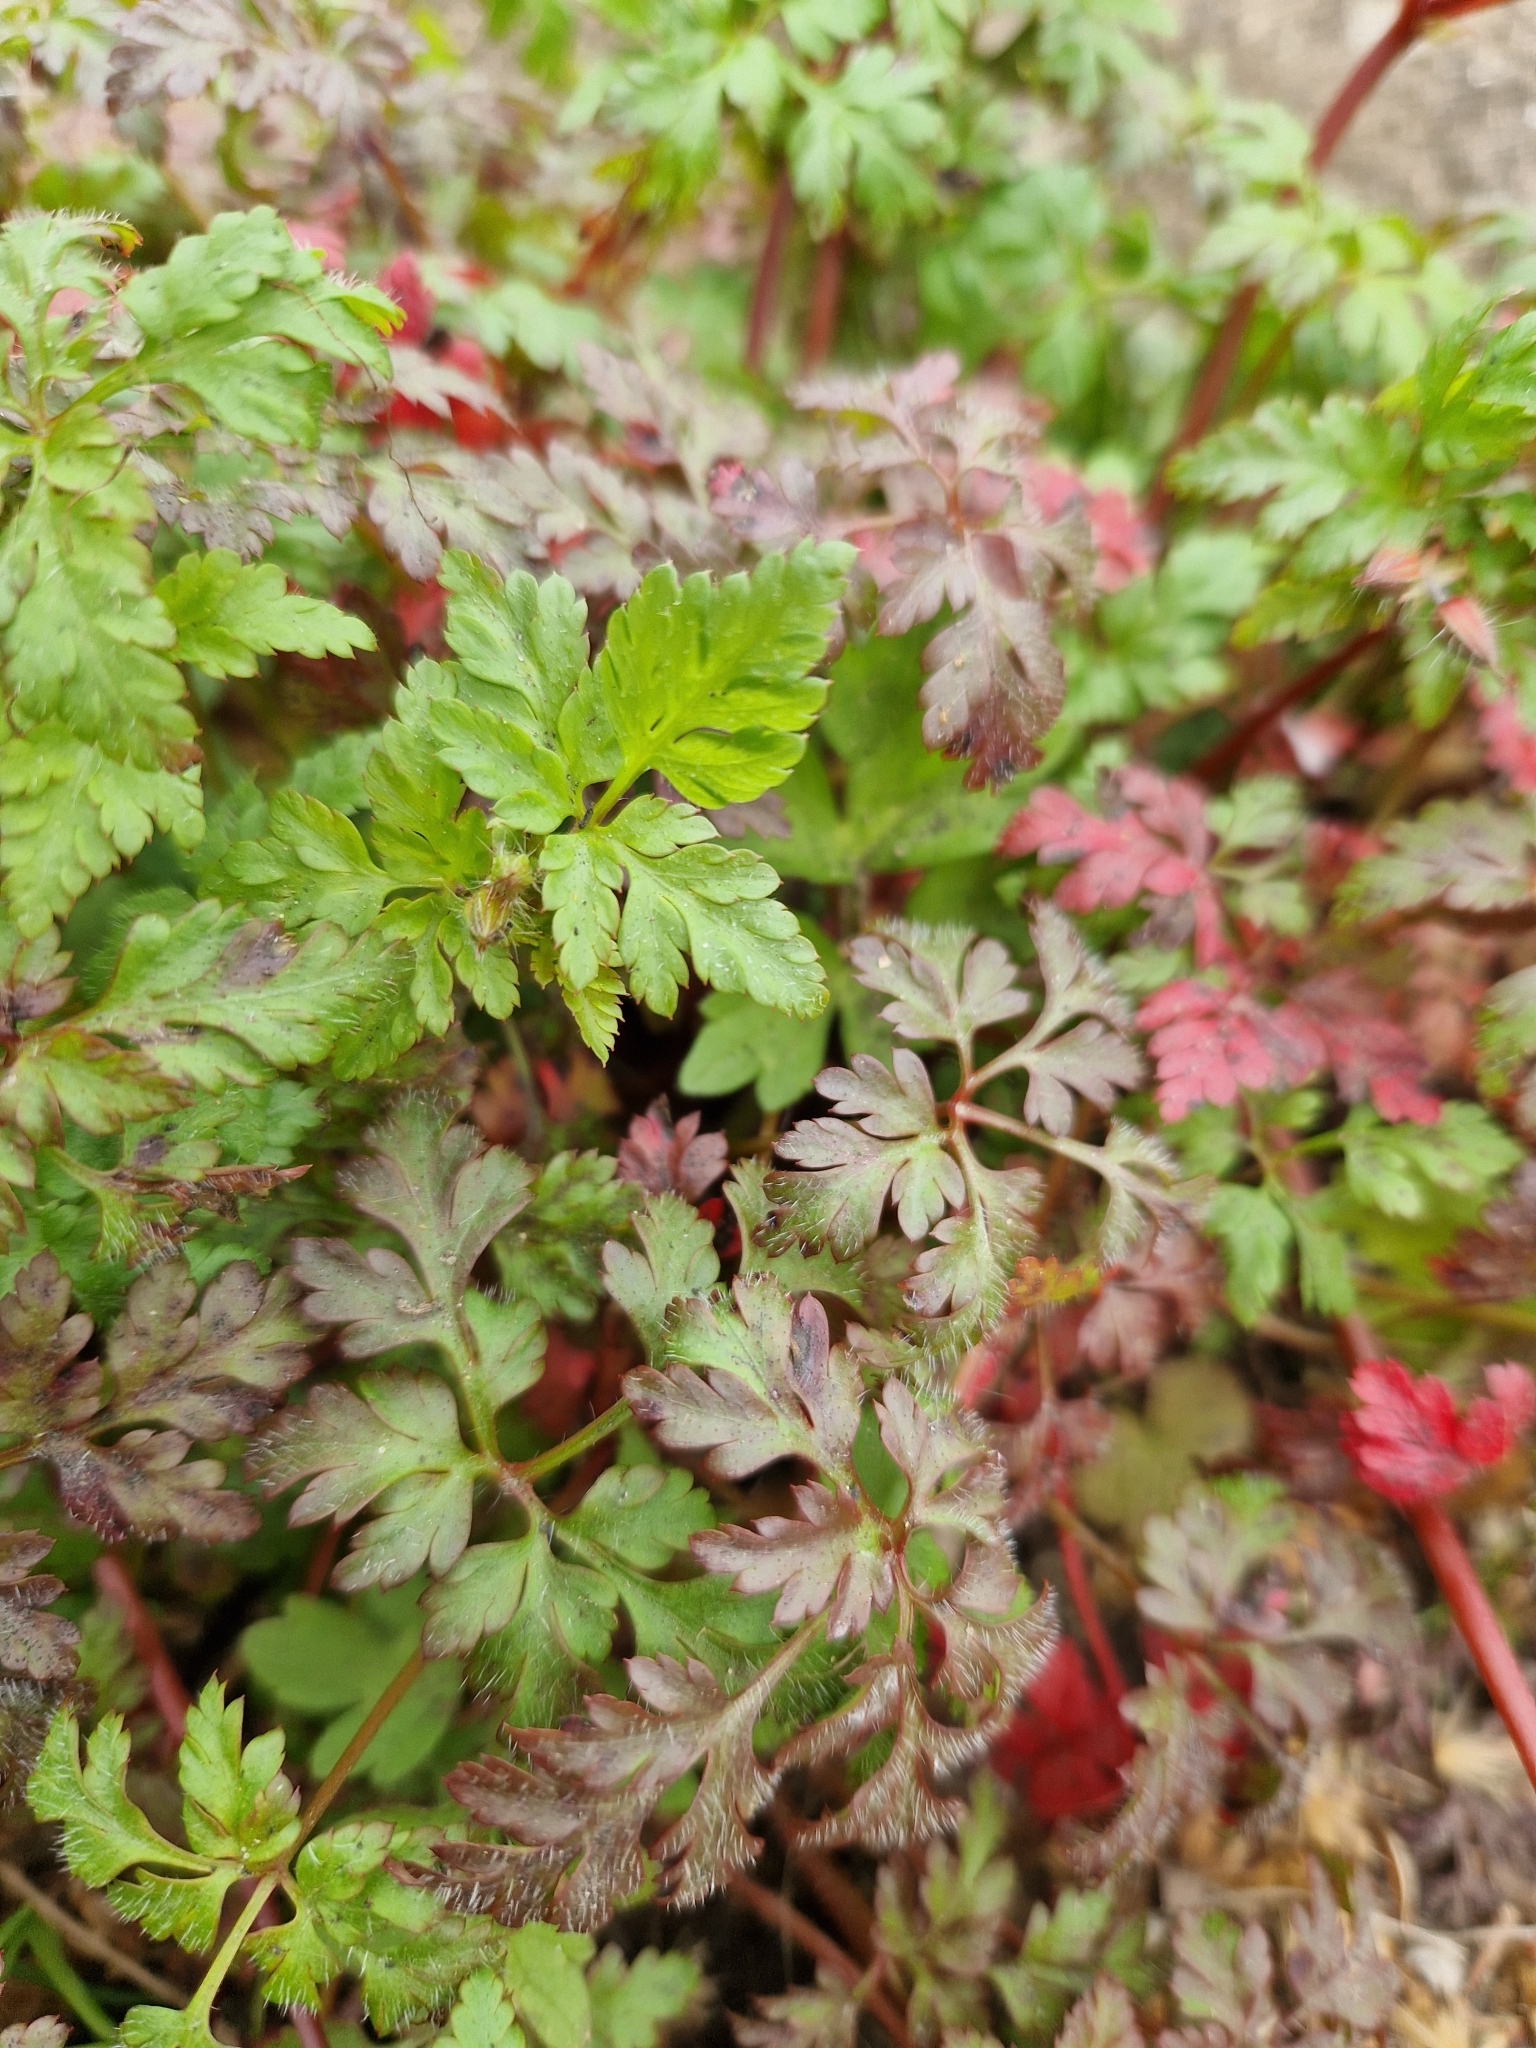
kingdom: Plantae
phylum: Tracheophyta
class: Magnoliopsida
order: Geraniales
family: Geraniaceae
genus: Geranium
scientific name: Geranium robertianum
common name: Herb-robert
